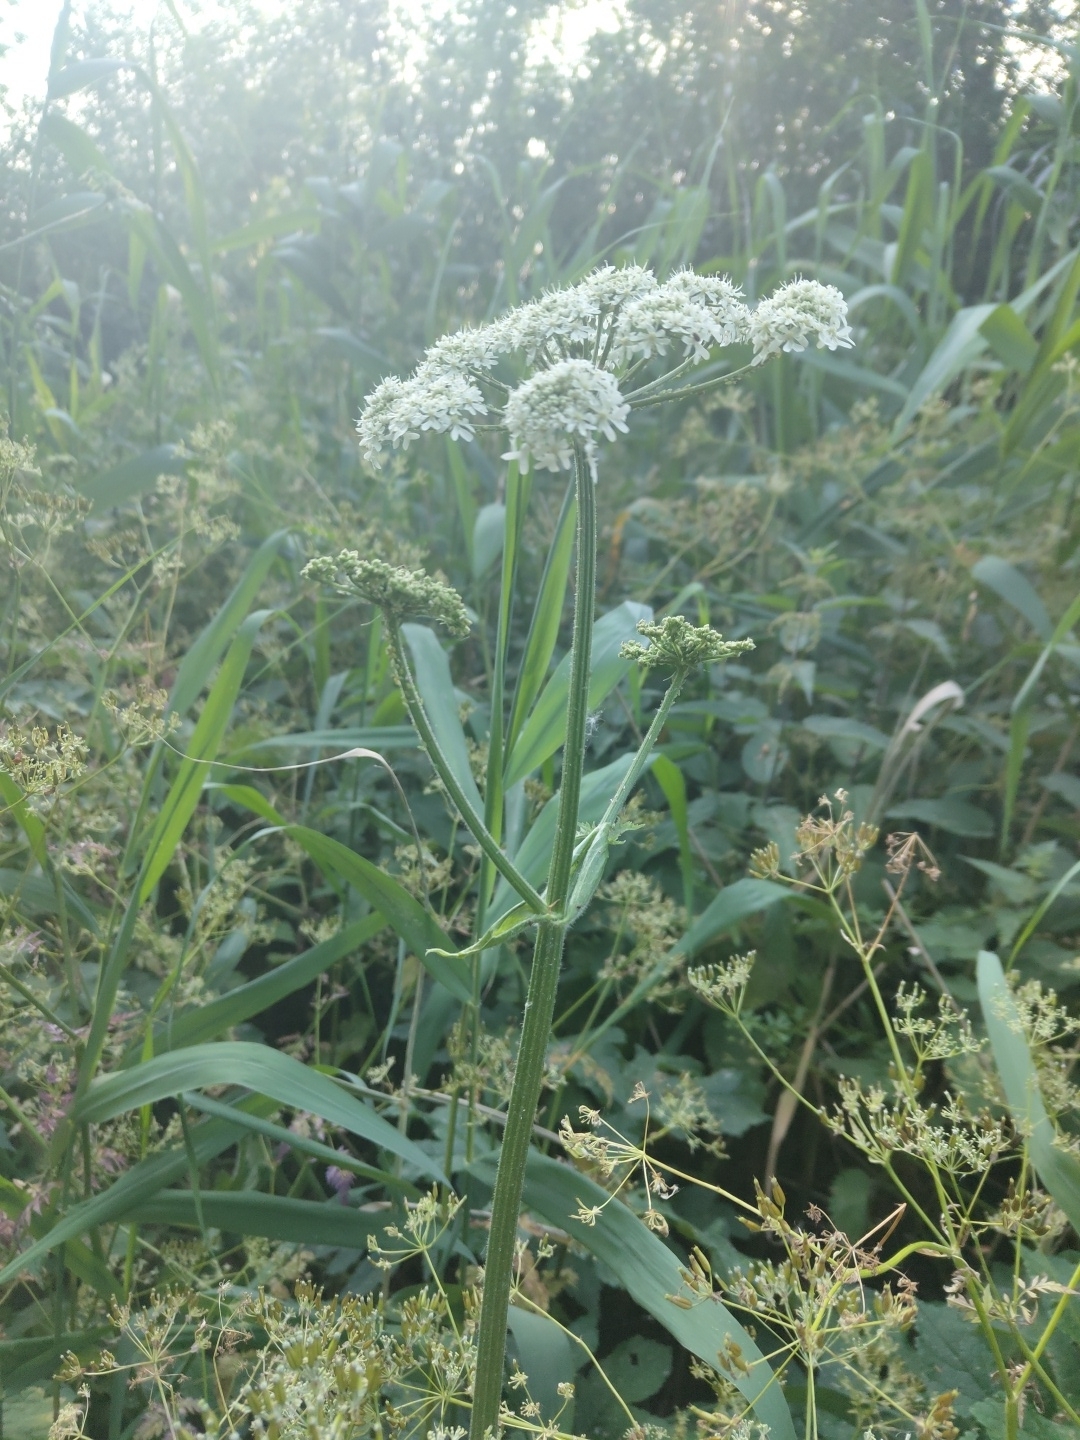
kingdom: Plantae
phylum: Tracheophyta
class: Magnoliopsida
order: Apiales
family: Apiaceae
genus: Heracleum
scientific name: Heracleum sphondylium
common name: Hogweed
